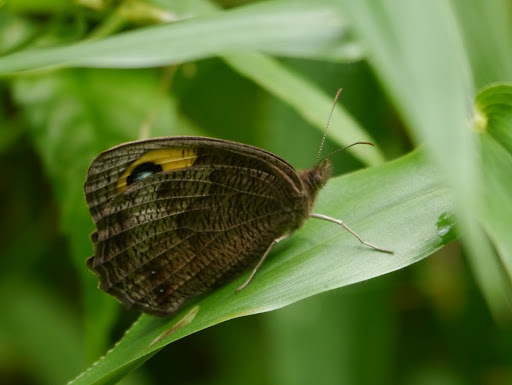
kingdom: Animalia
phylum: Arthropoda
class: Insecta
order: Lepidoptera
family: Nymphalidae
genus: Cercyonis
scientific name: Cercyonis pegala
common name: Common wood-nymph
